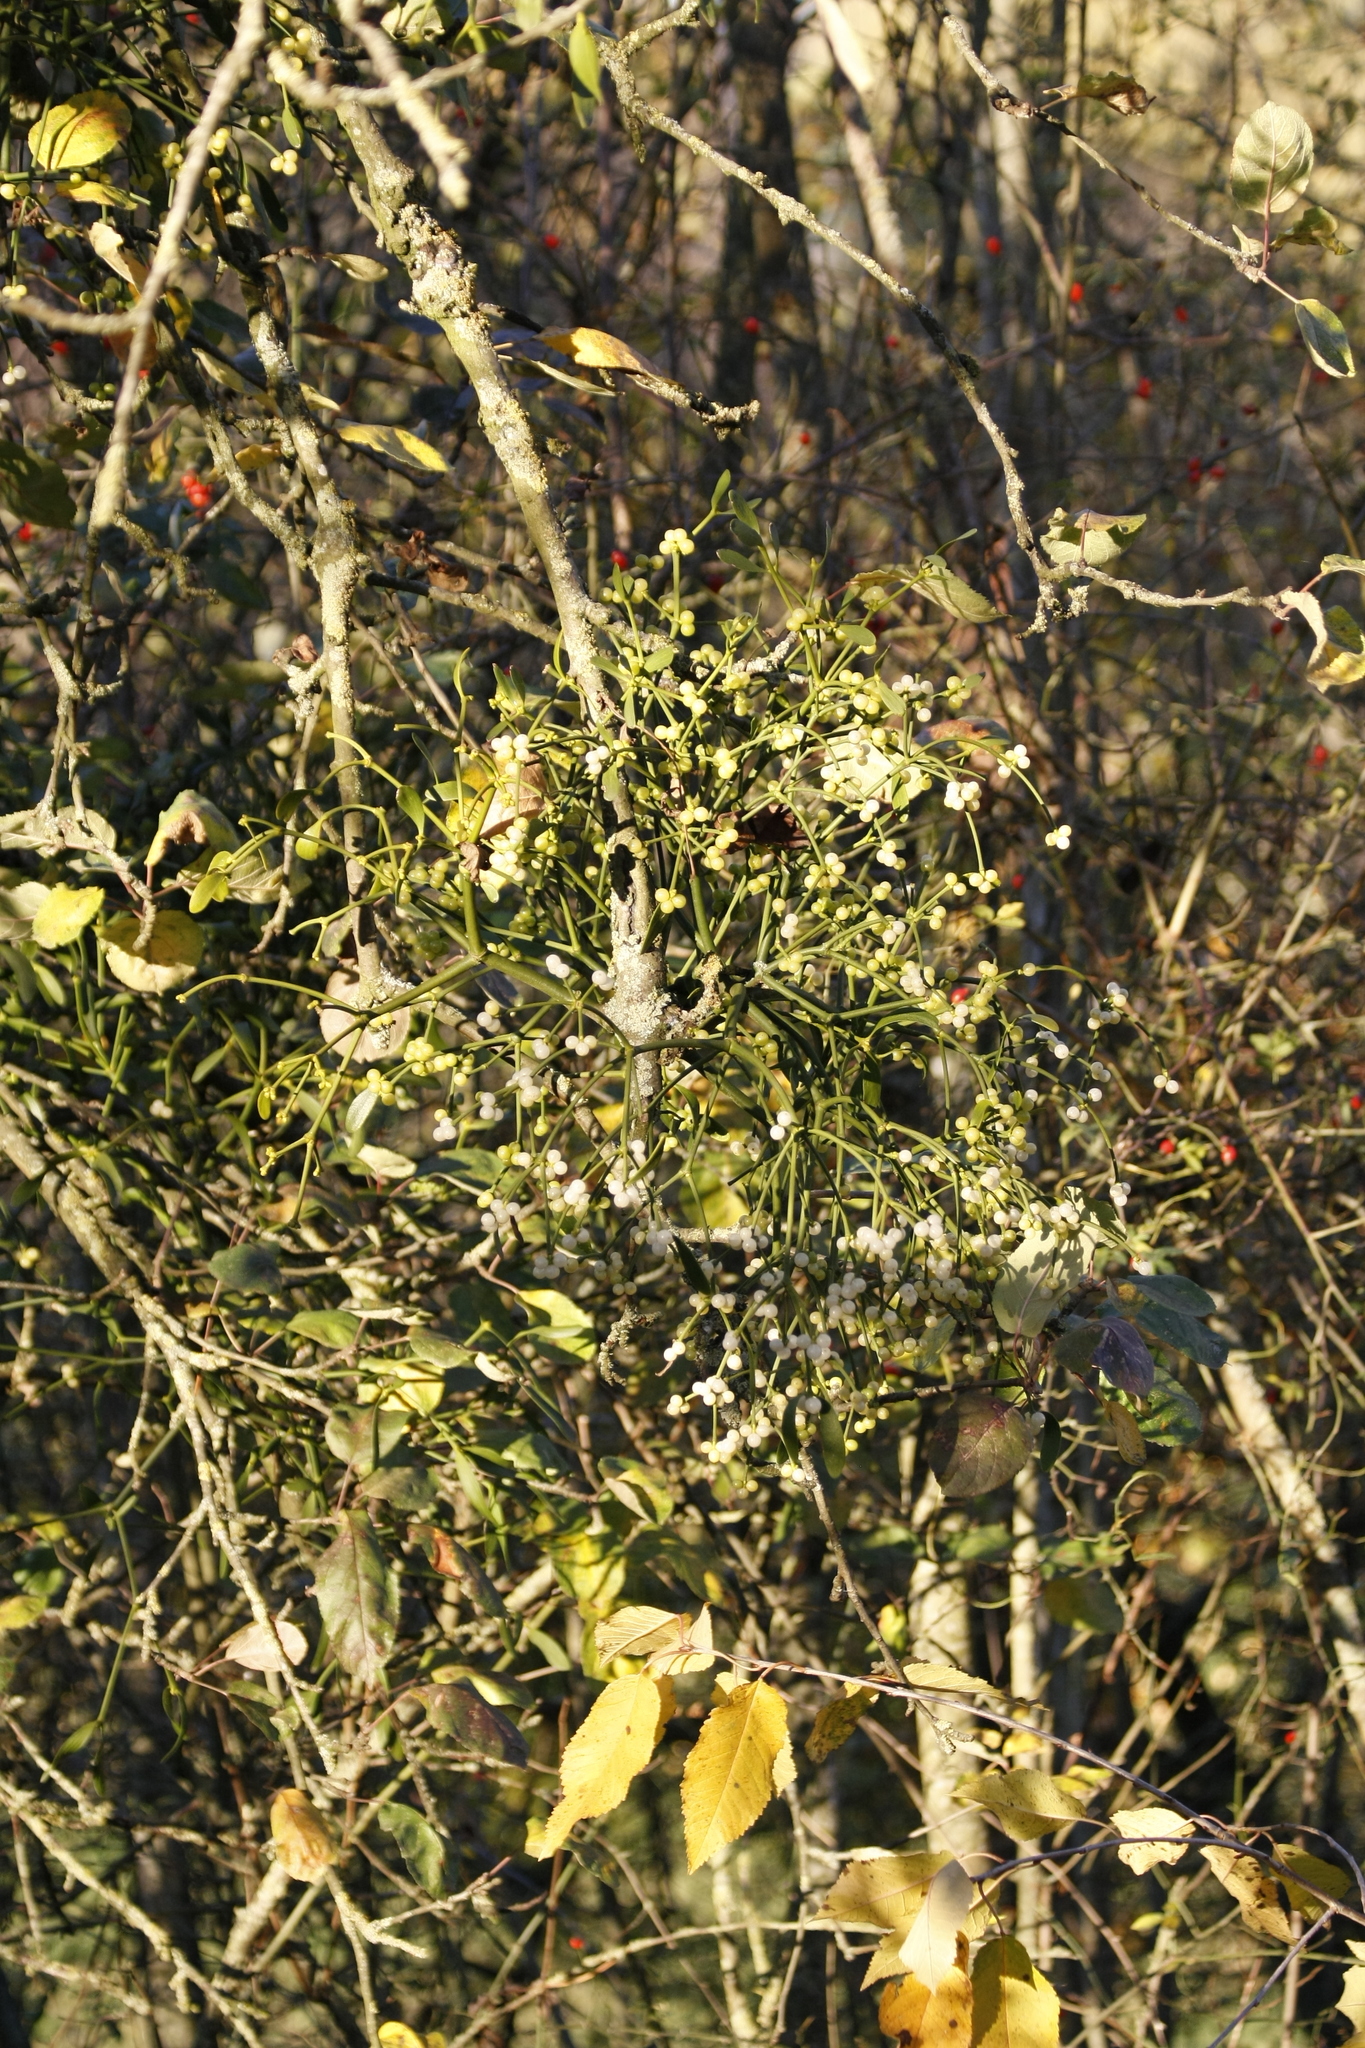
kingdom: Plantae
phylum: Tracheophyta
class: Magnoliopsida
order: Santalales
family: Viscaceae
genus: Viscum
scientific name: Viscum album
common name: Mistletoe
